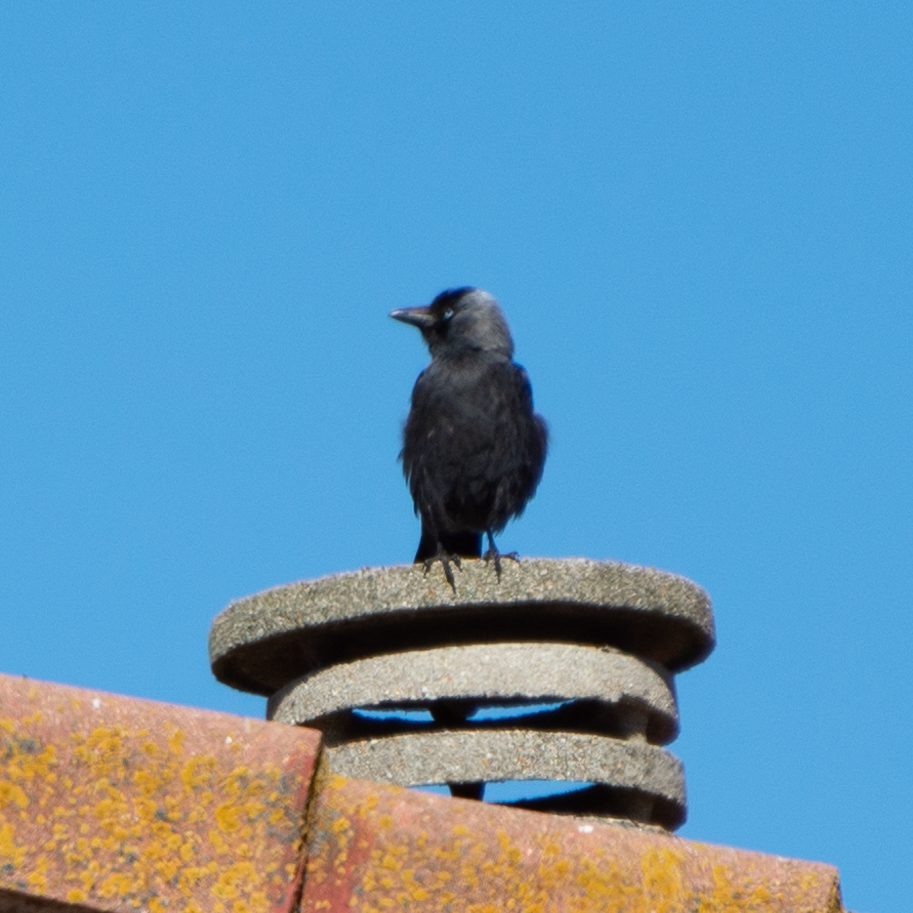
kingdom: Animalia
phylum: Chordata
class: Aves
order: Passeriformes
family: Corvidae
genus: Coloeus
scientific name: Coloeus monedula
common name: Western jackdaw
